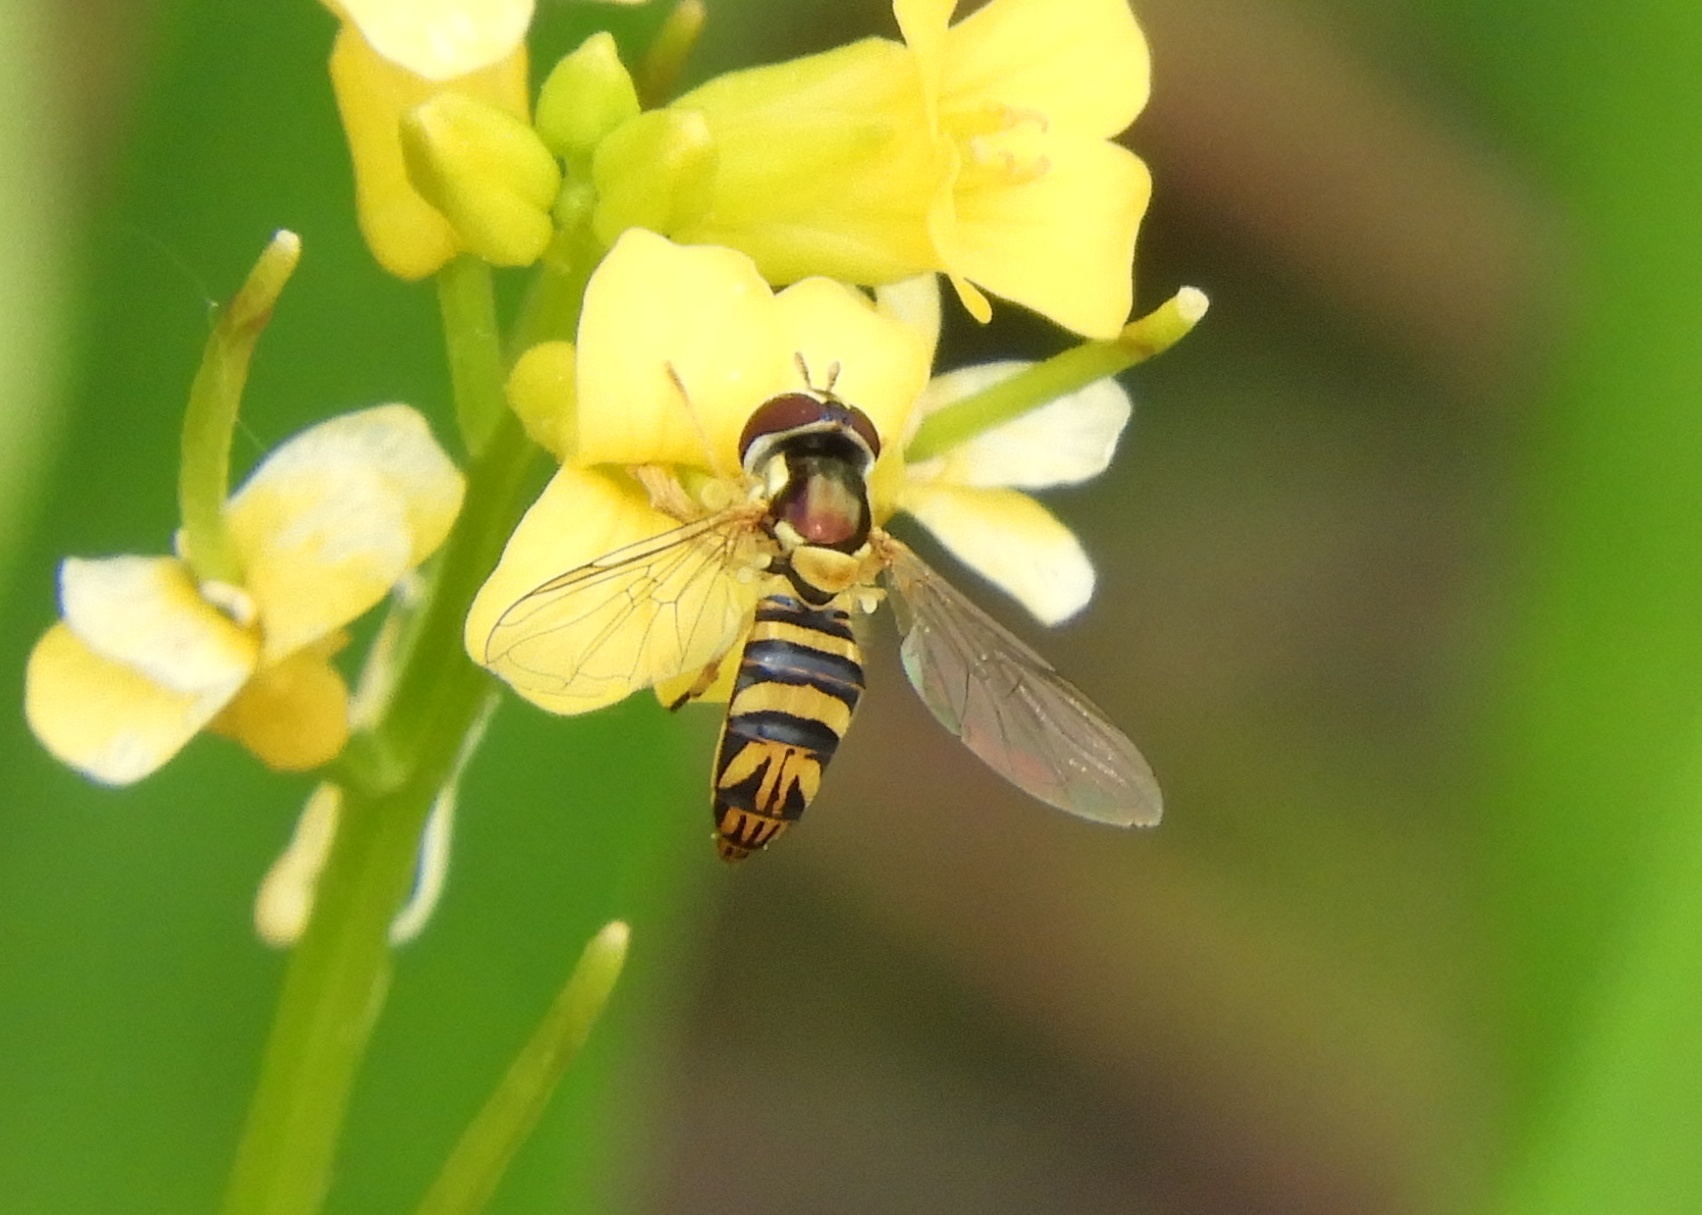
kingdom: Animalia
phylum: Arthropoda
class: Insecta
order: Diptera
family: Syrphidae
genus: Allograpta
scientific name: Allograpta obliqua
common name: Common oblique syrphid
